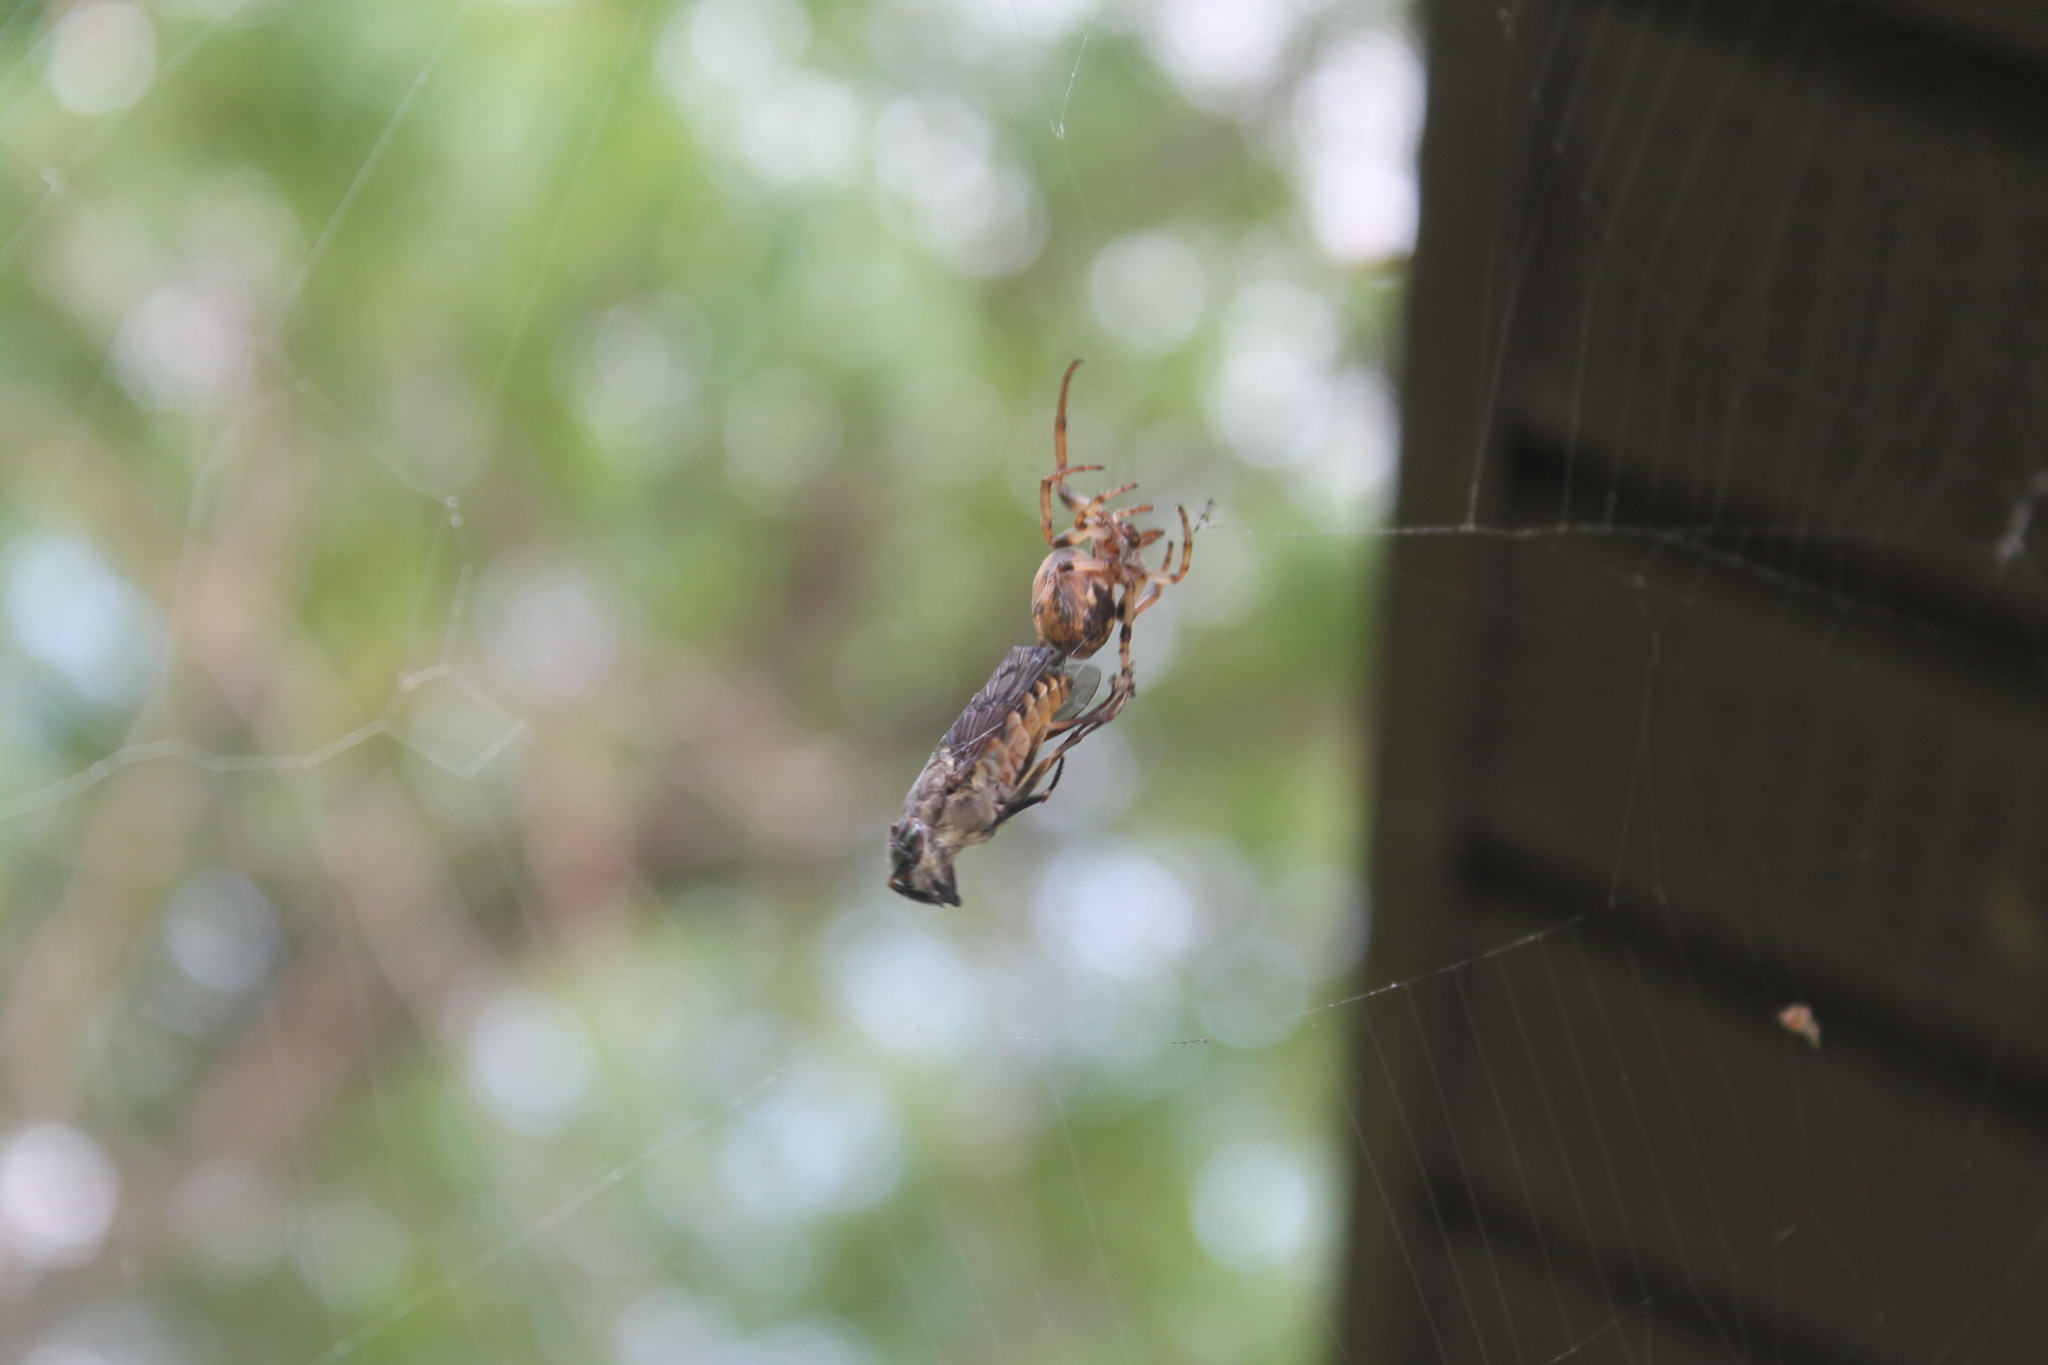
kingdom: Animalia
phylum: Arthropoda
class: Arachnida
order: Araneae
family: Araneidae
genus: Larinioides
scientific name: Larinioides cornutus
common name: Furrow orbweaver
